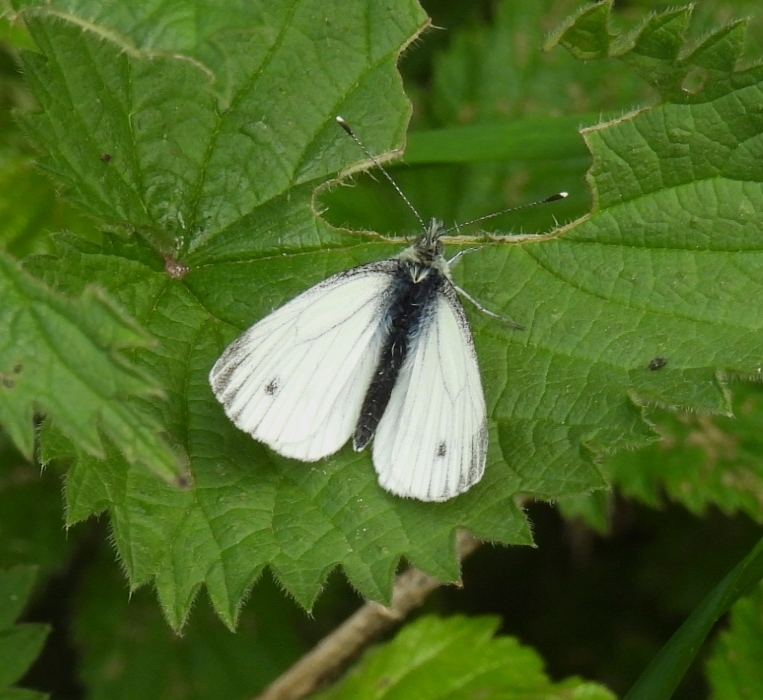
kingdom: Animalia
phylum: Arthropoda
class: Insecta
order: Lepidoptera
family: Pieridae
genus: Pieris
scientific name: Pieris napi
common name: Green-veined white
